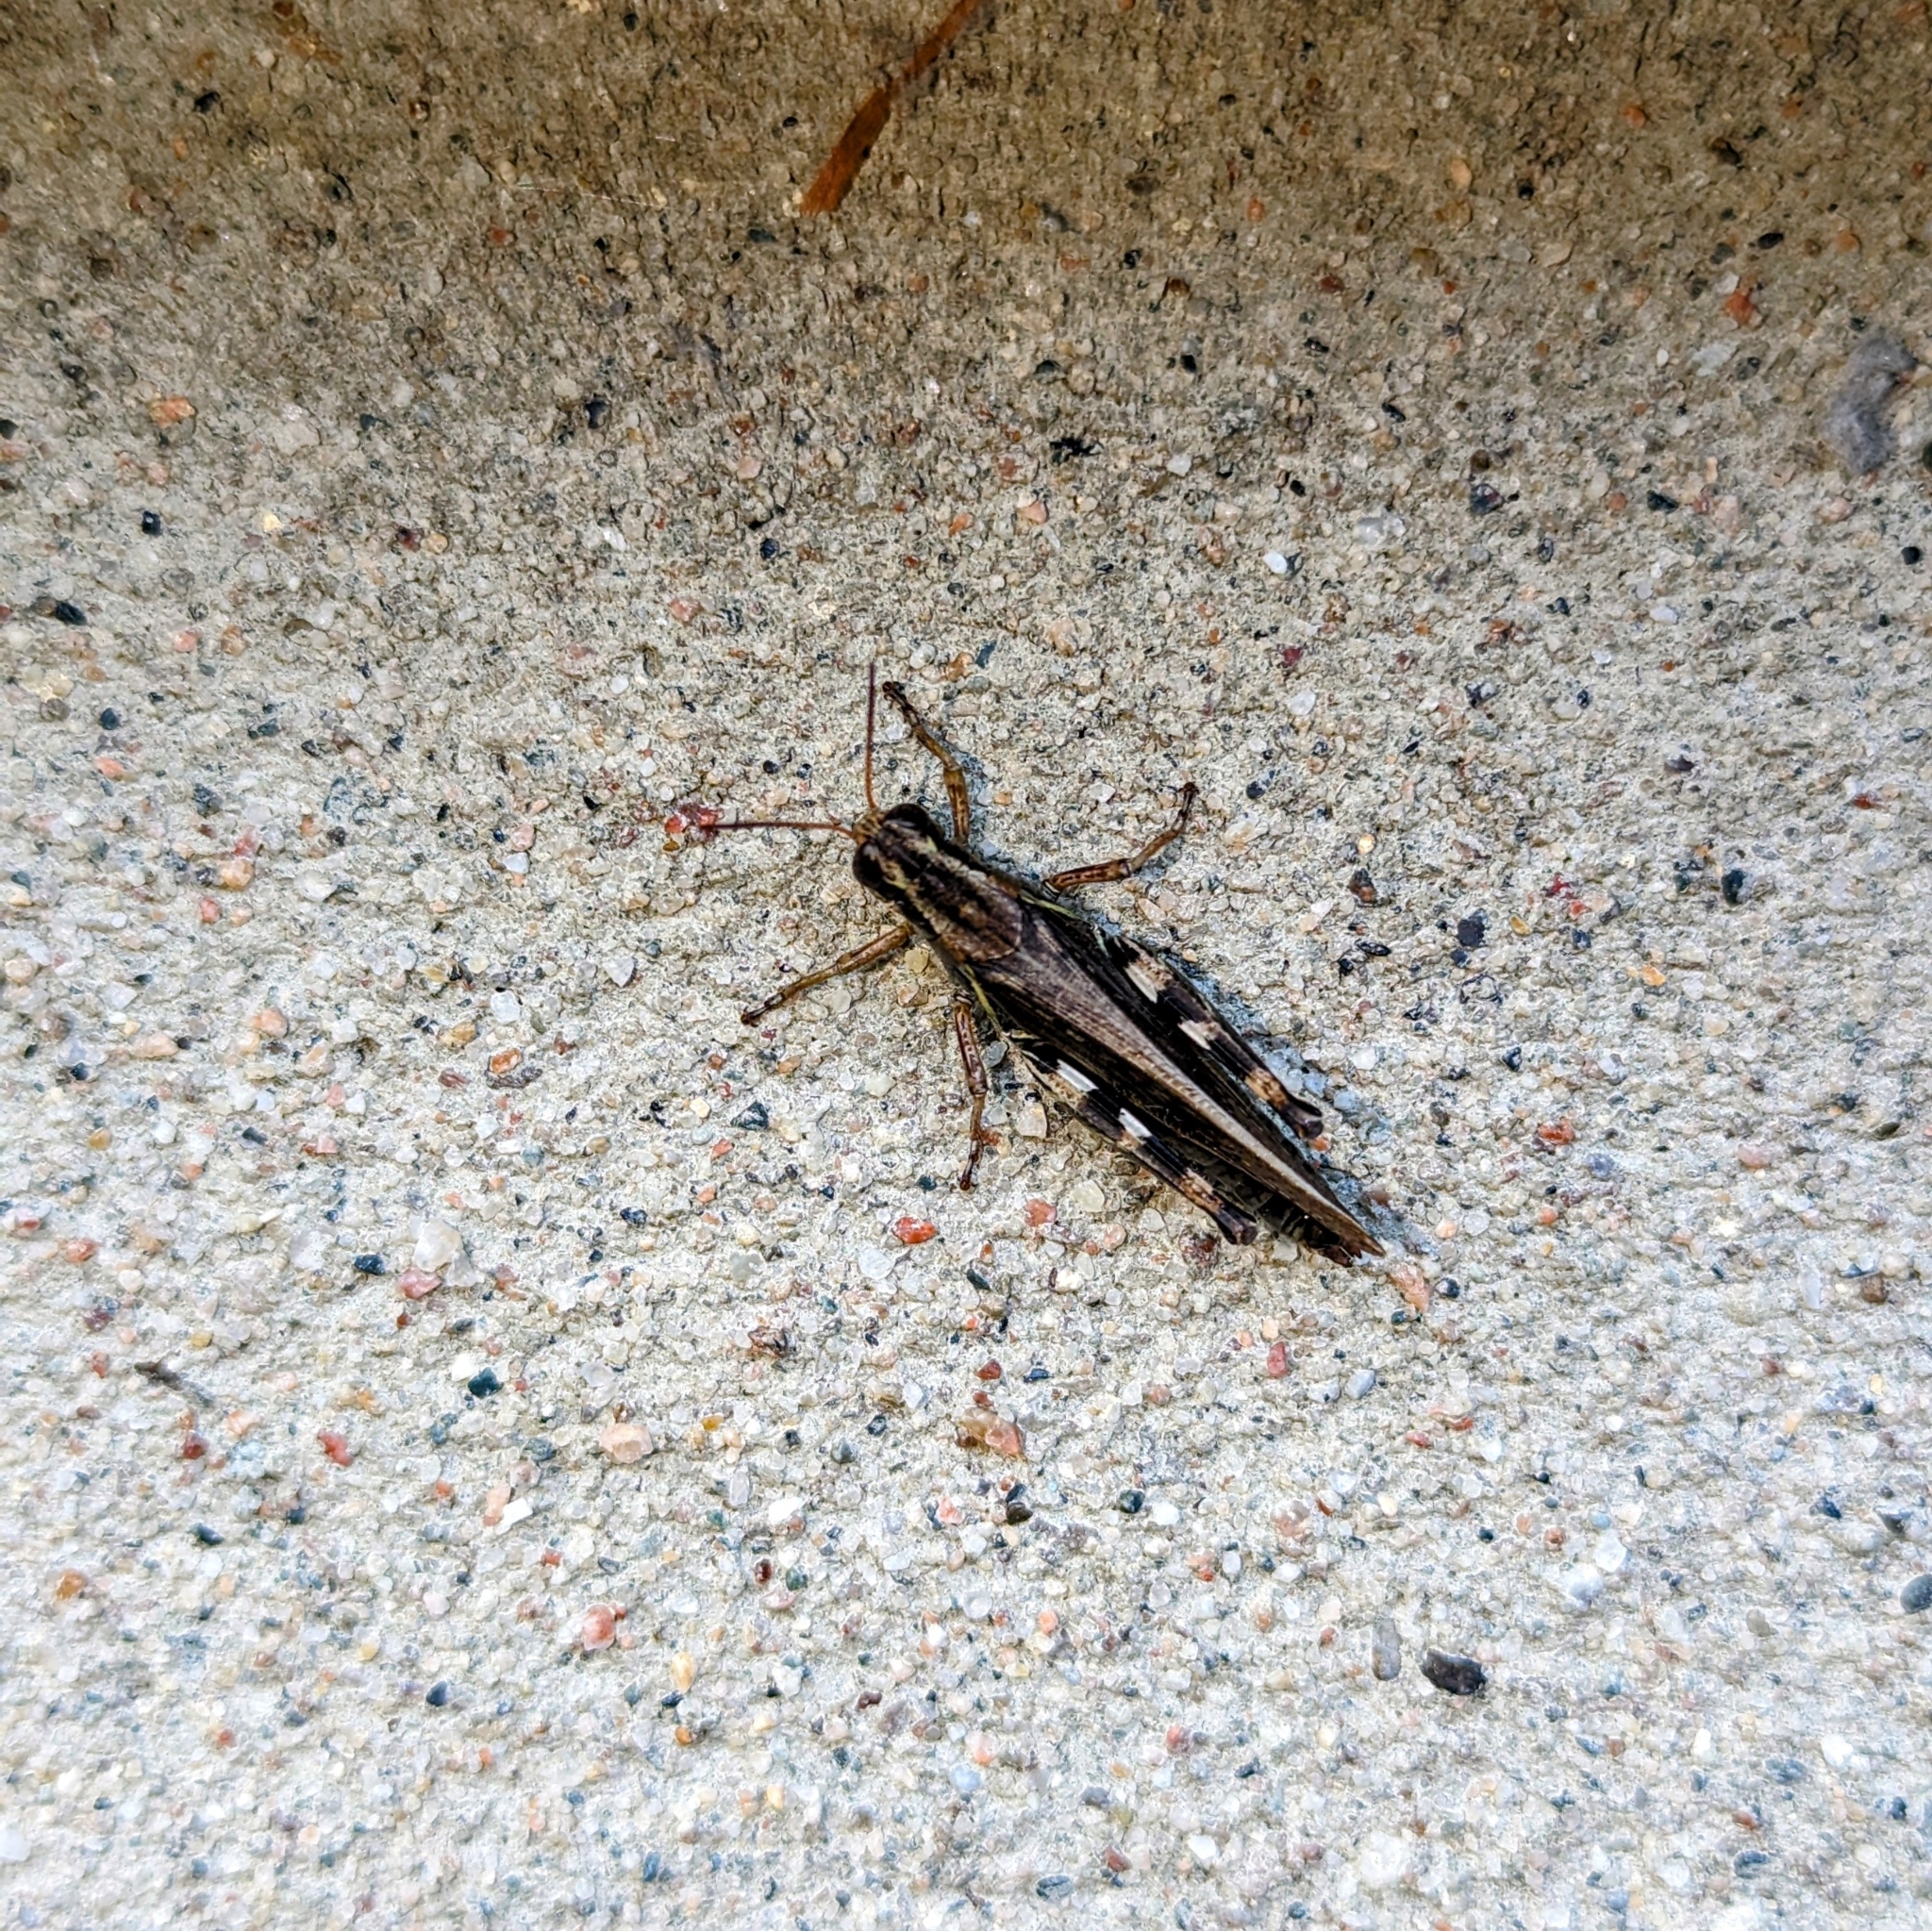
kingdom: Animalia
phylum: Arthropoda
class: Insecta
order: Orthoptera
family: Acrididae
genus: Melanoplus
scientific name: Melanoplus sanguinipes
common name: Migratory grasshopper
